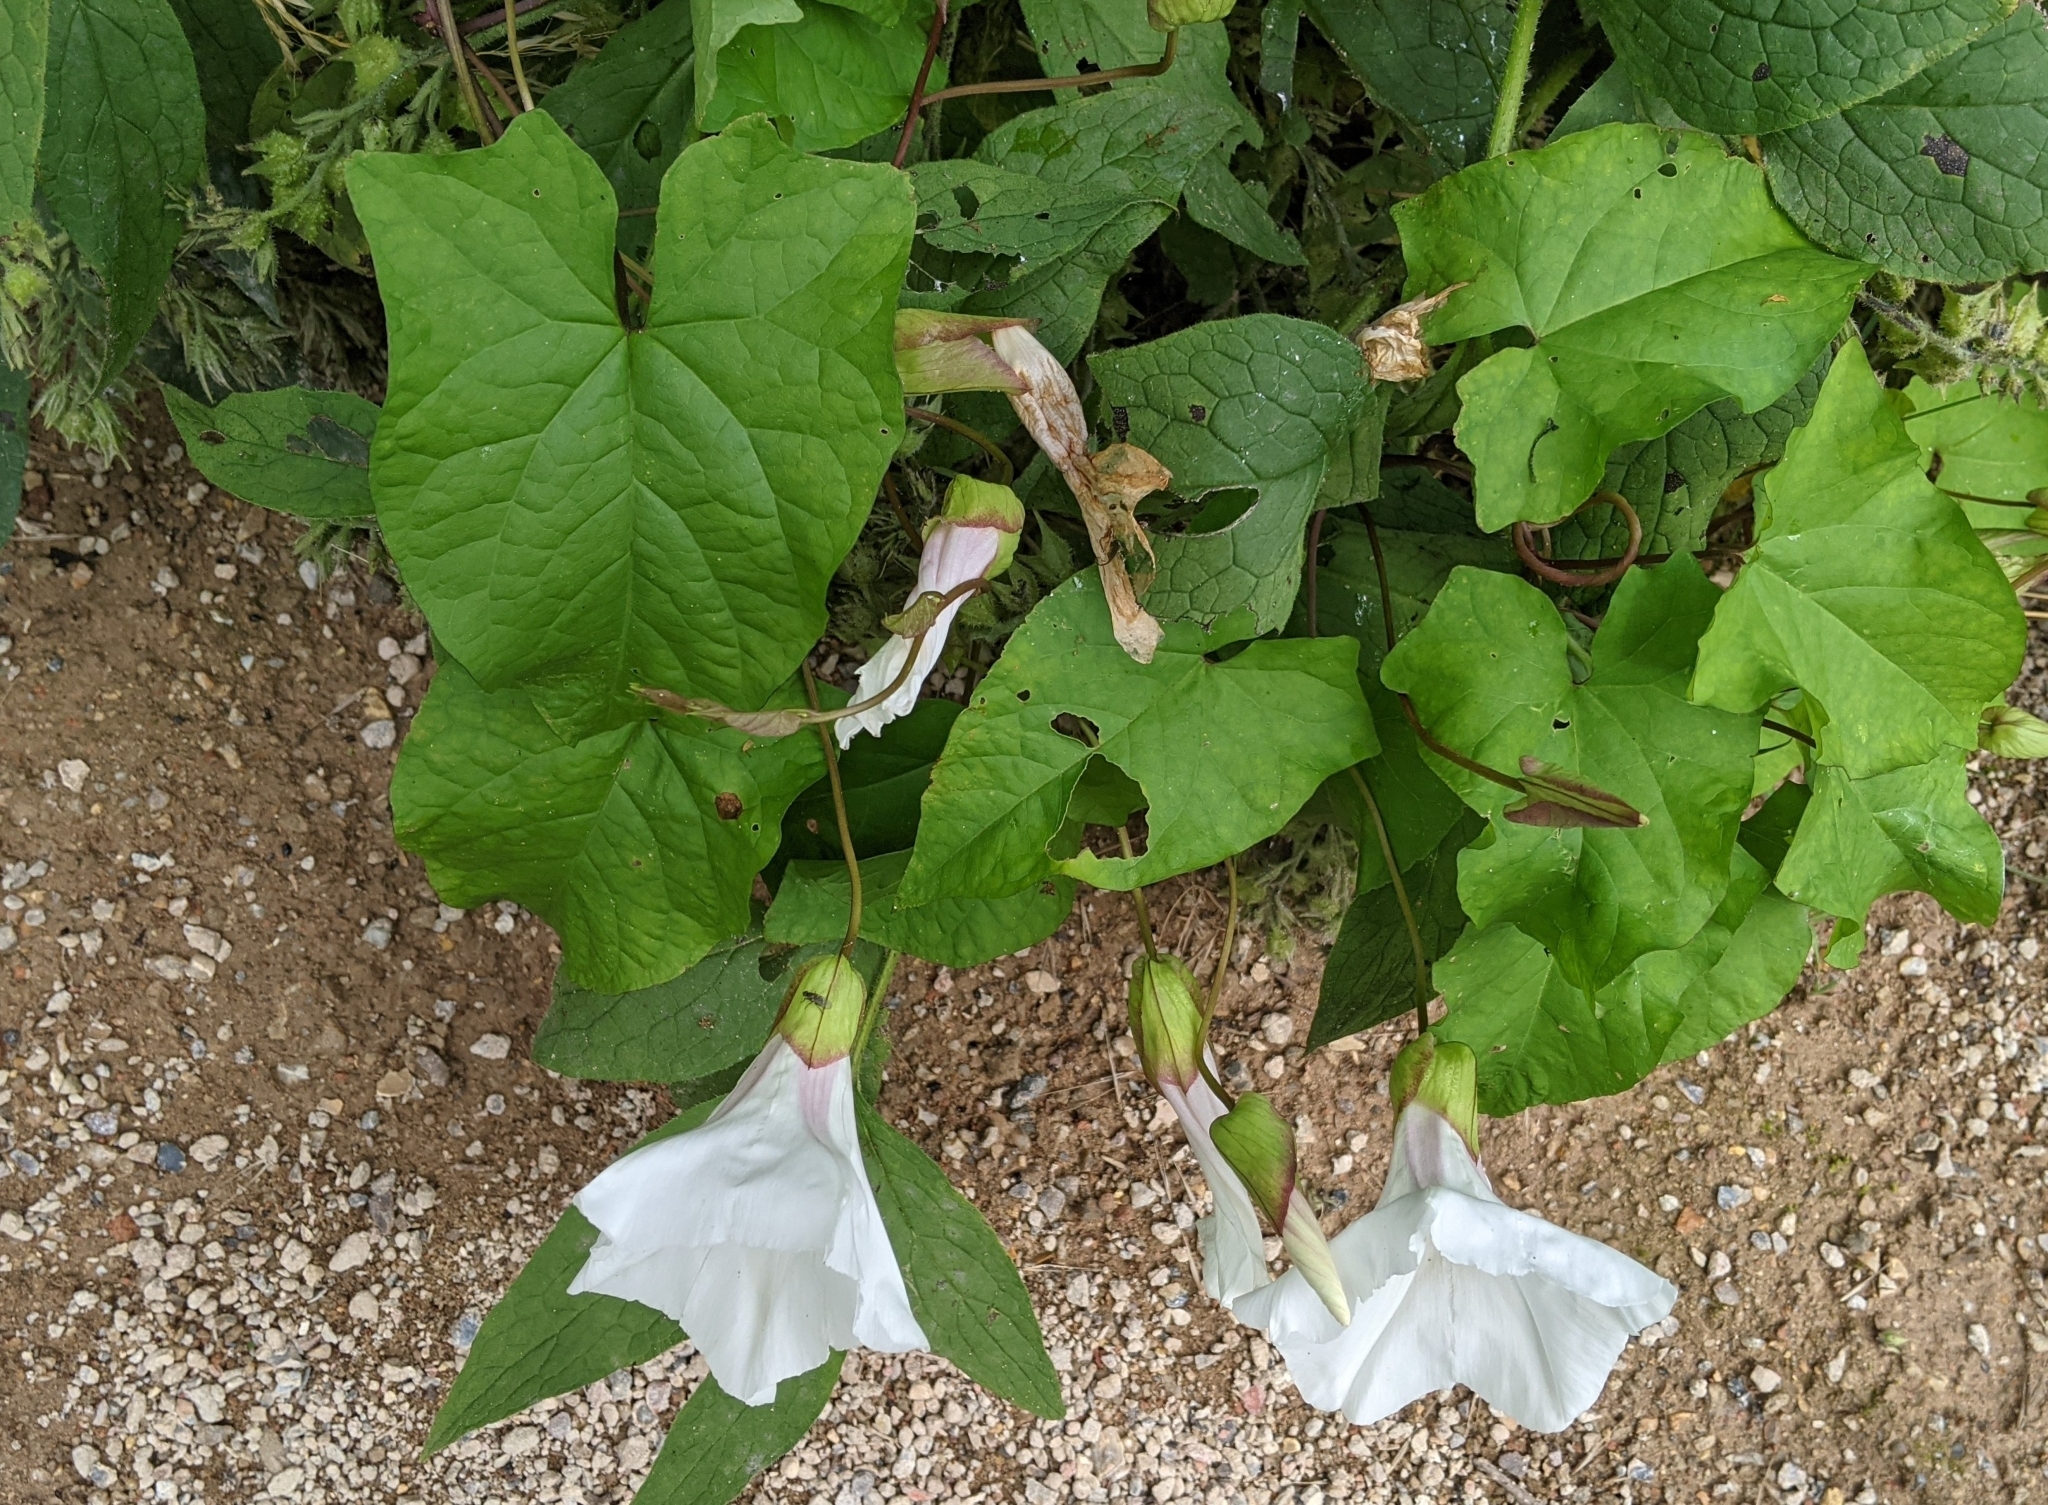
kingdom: Plantae
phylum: Tracheophyta
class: Magnoliopsida
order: Solanales
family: Convolvulaceae
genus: Calystegia
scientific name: Calystegia silvatica
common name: Large bindweed
